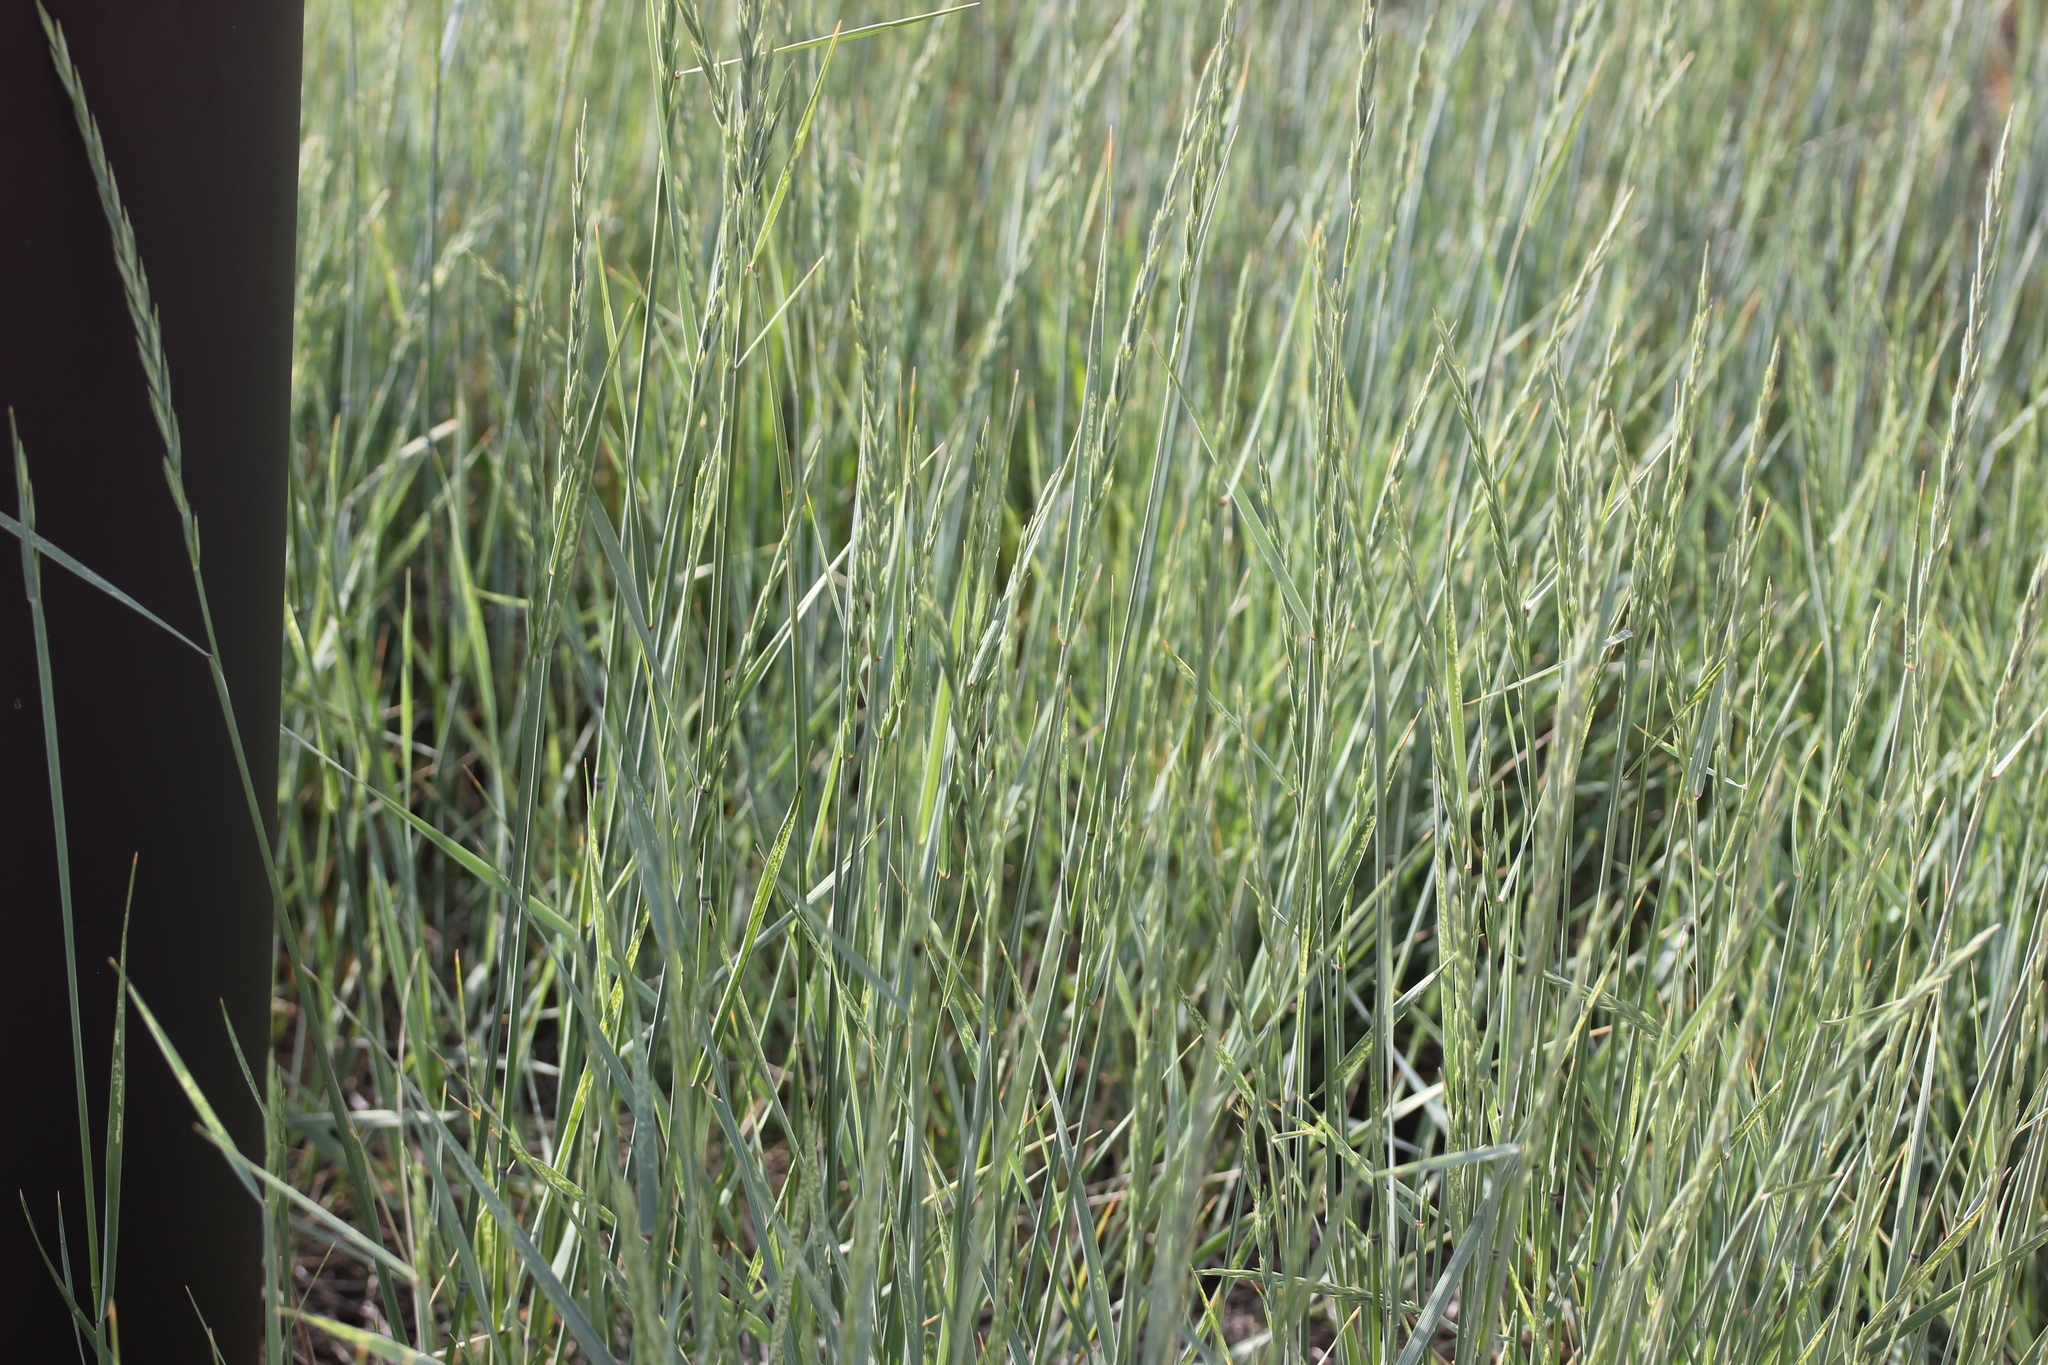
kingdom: Plantae
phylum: Tracheophyta
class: Liliopsida
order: Poales
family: Poaceae
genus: Elymus
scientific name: Elymus smithii
